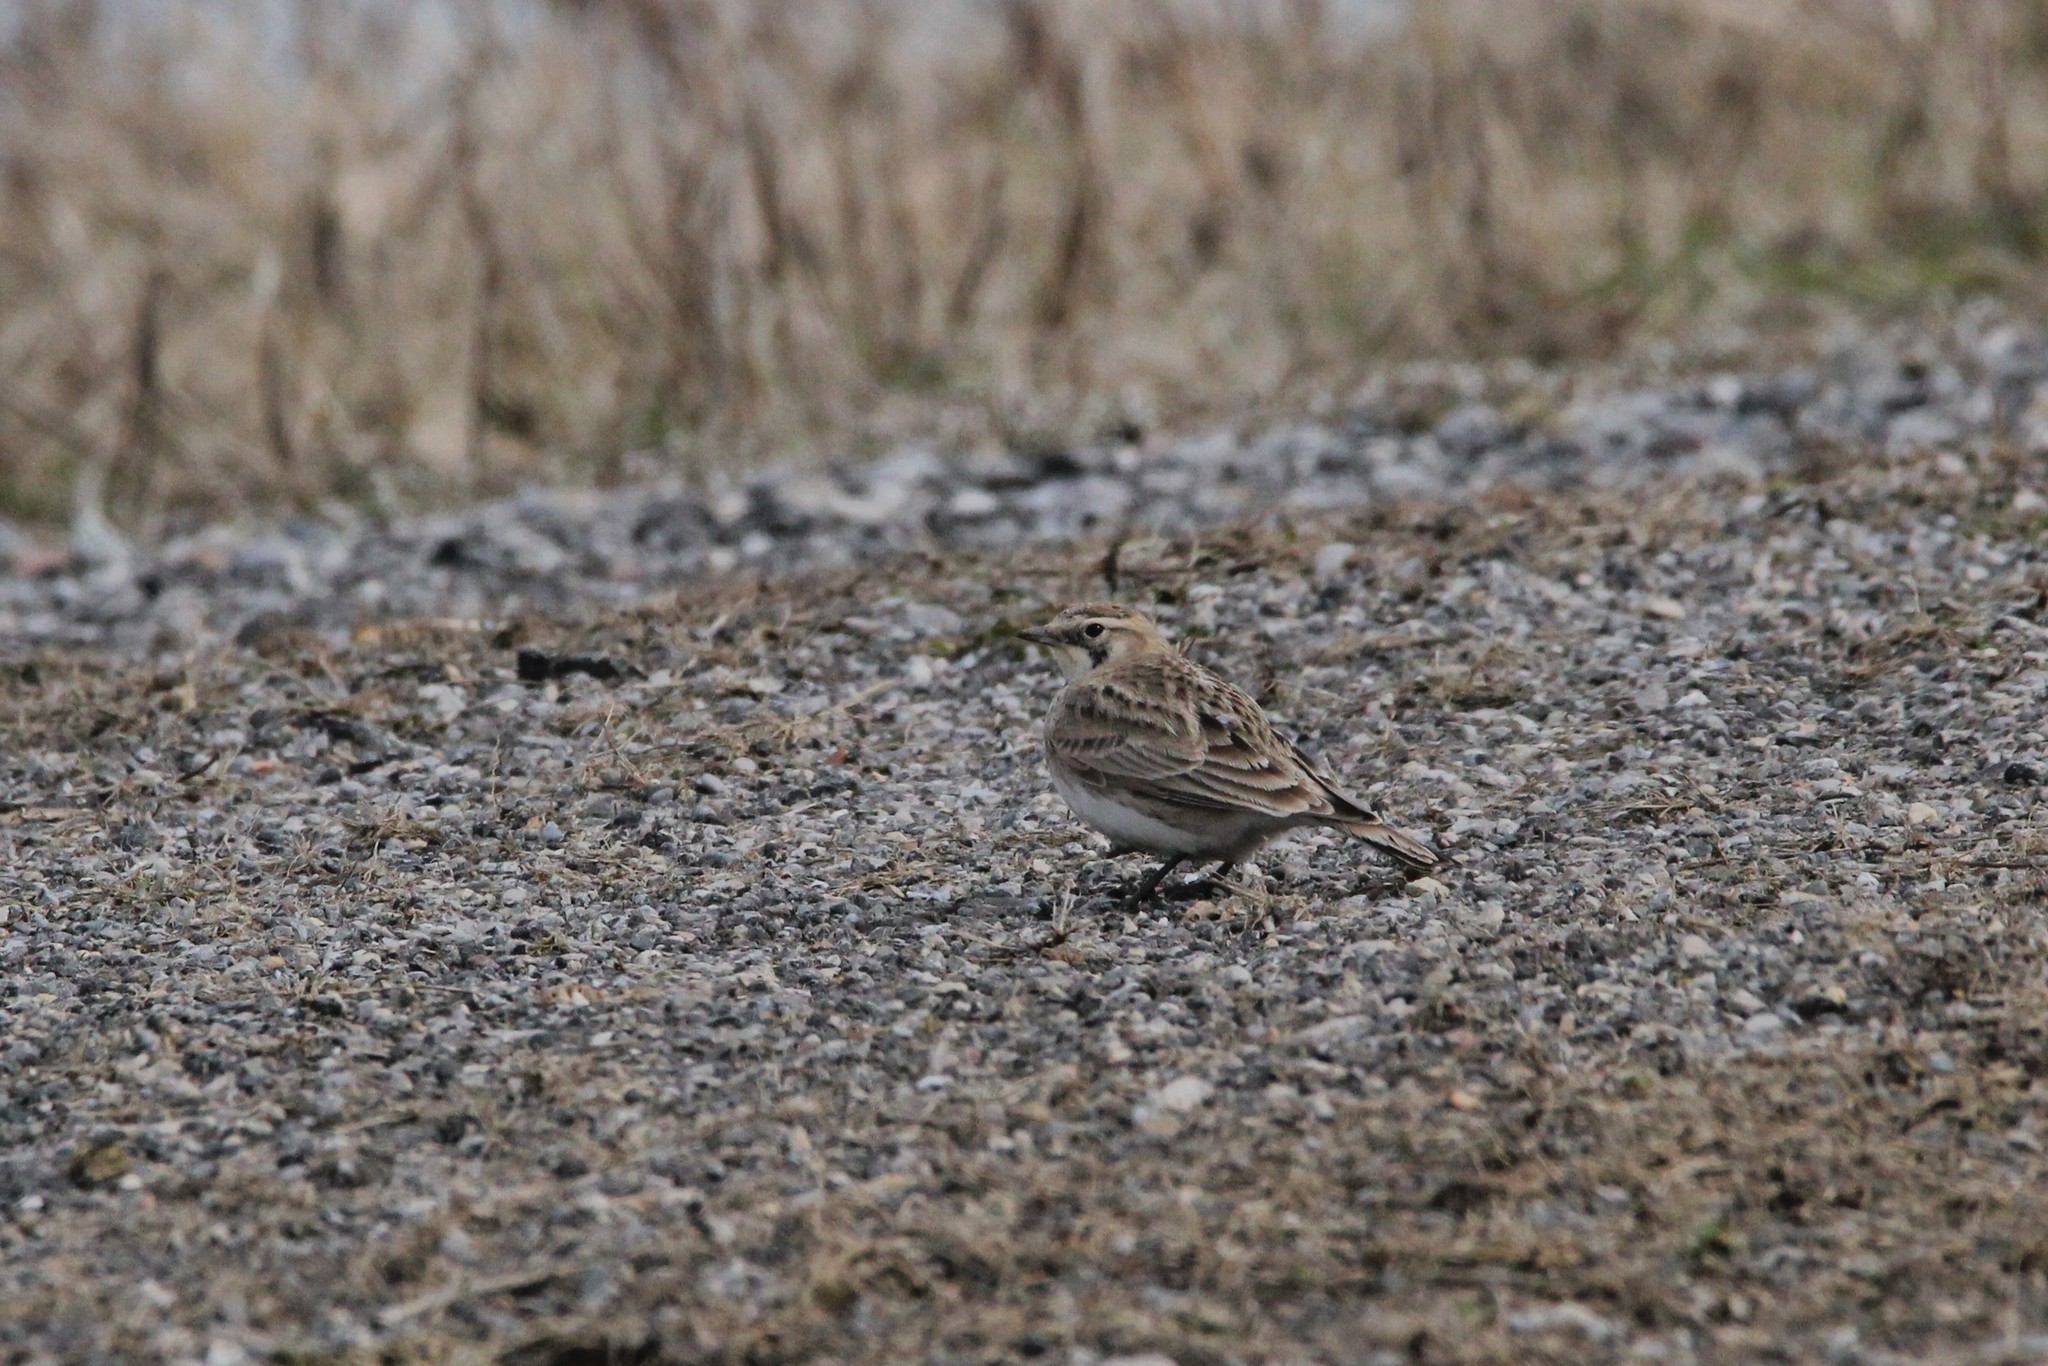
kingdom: Animalia
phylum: Chordata
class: Aves
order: Passeriformes
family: Alaudidae
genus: Eremophila
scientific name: Eremophila alpestris
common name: Horned lark
